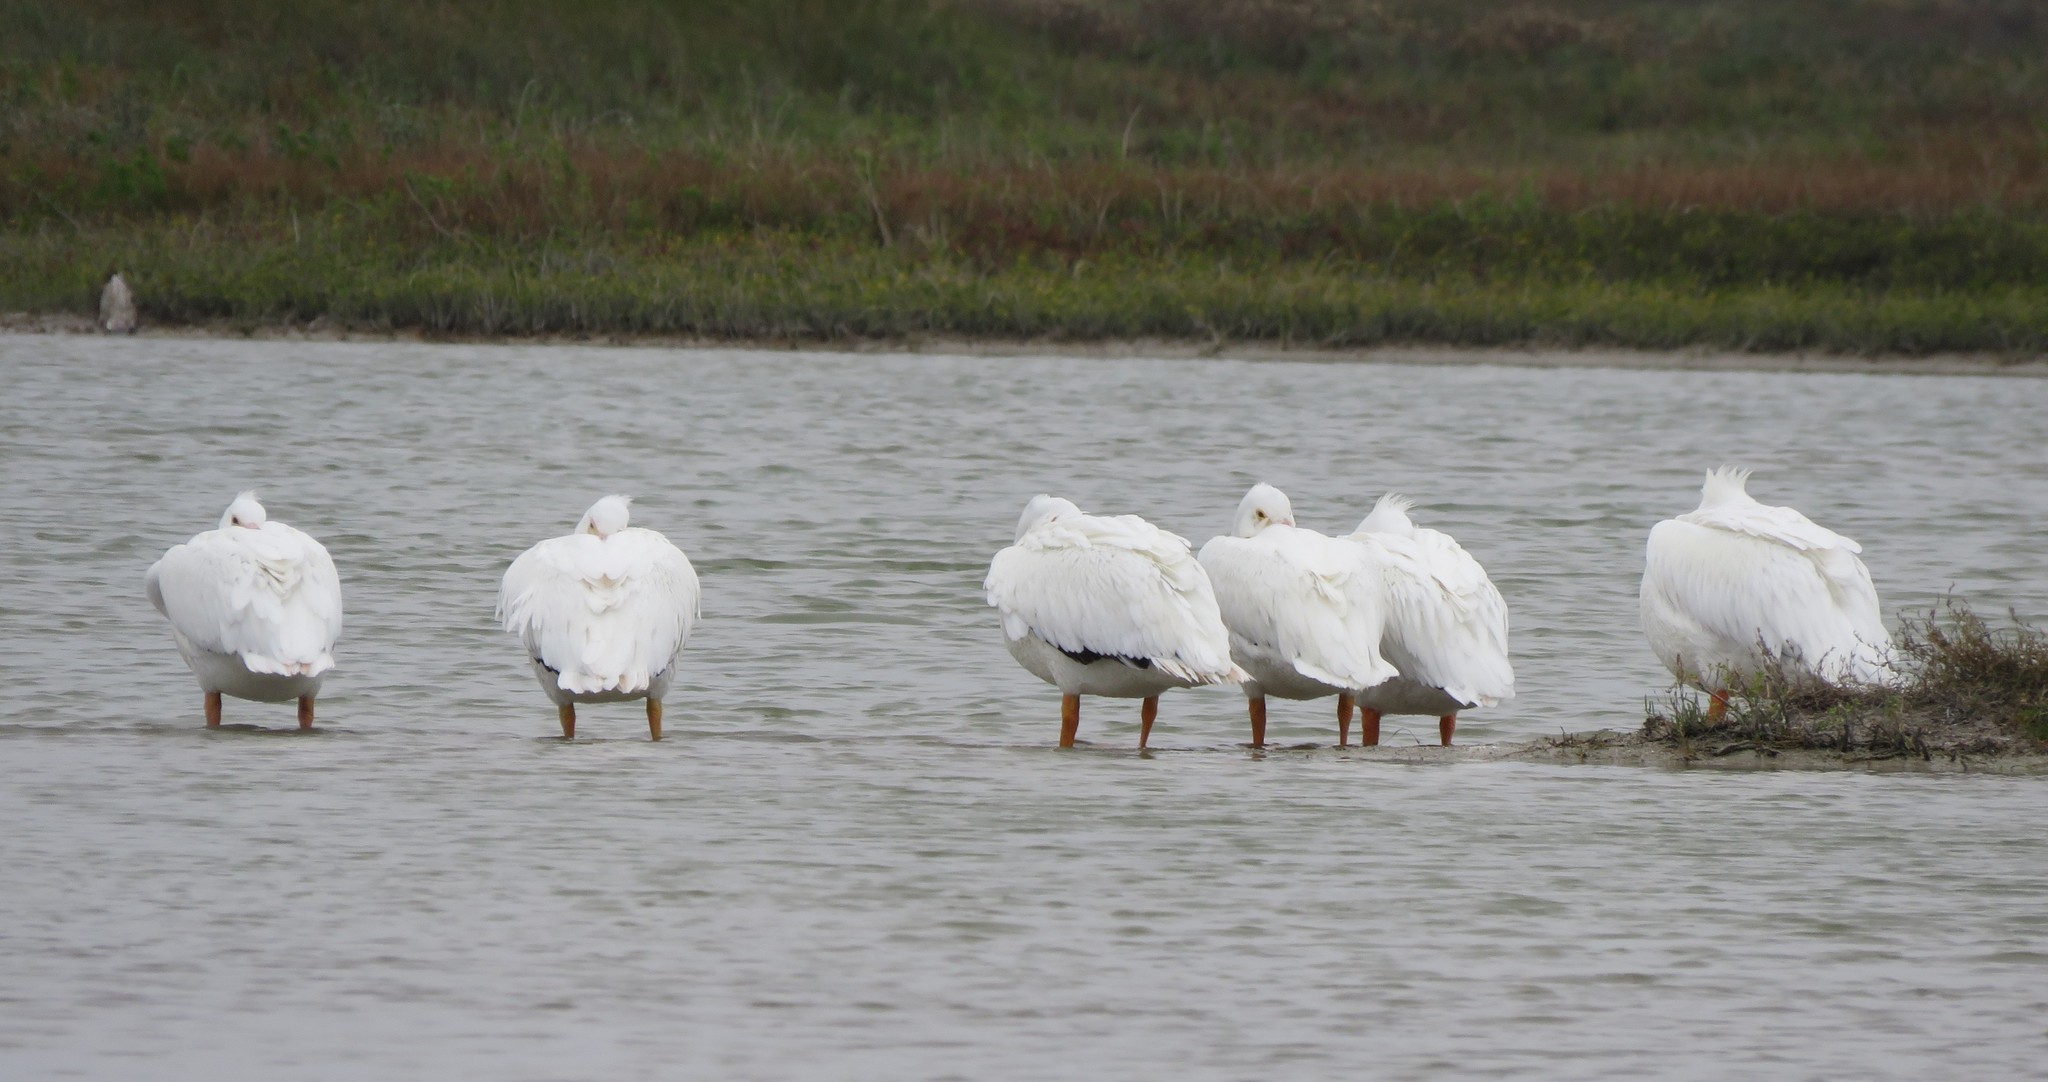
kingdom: Animalia
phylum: Chordata
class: Aves
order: Pelecaniformes
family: Pelecanidae
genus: Pelecanus
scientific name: Pelecanus erythrorhynchos
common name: American white pelican
